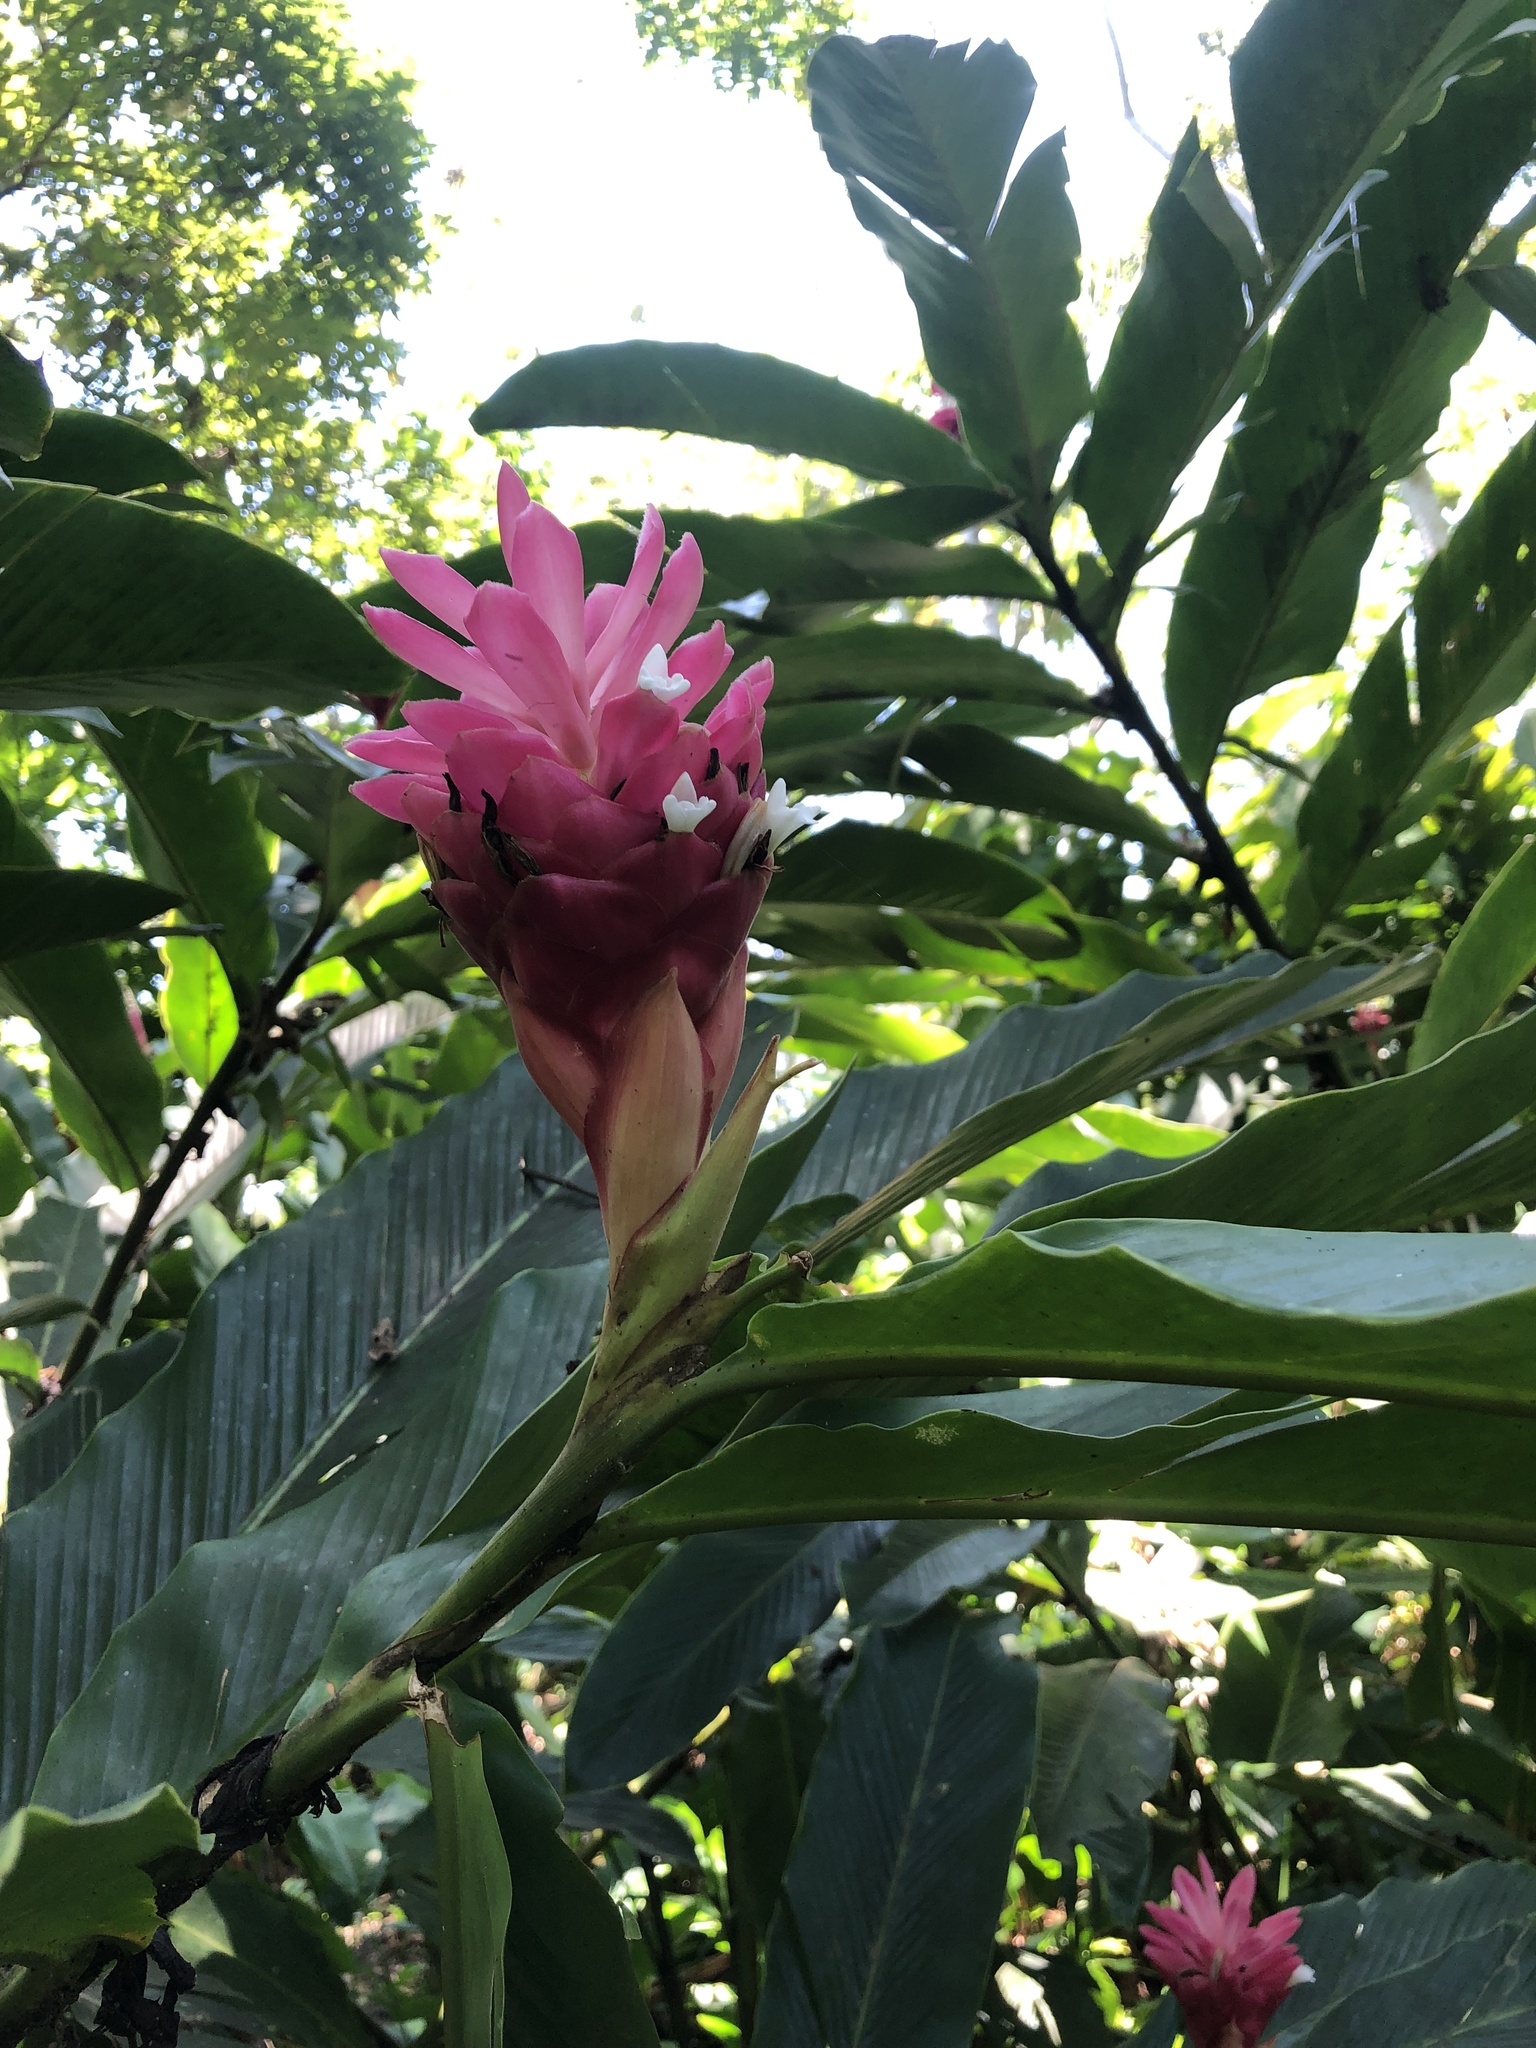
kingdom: Plantae
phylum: Tracheophyta
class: Liliopsida
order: Zingiberales
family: Zingiberaceae
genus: Alpinia
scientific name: Alpinia purpurata
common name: Red ginger
